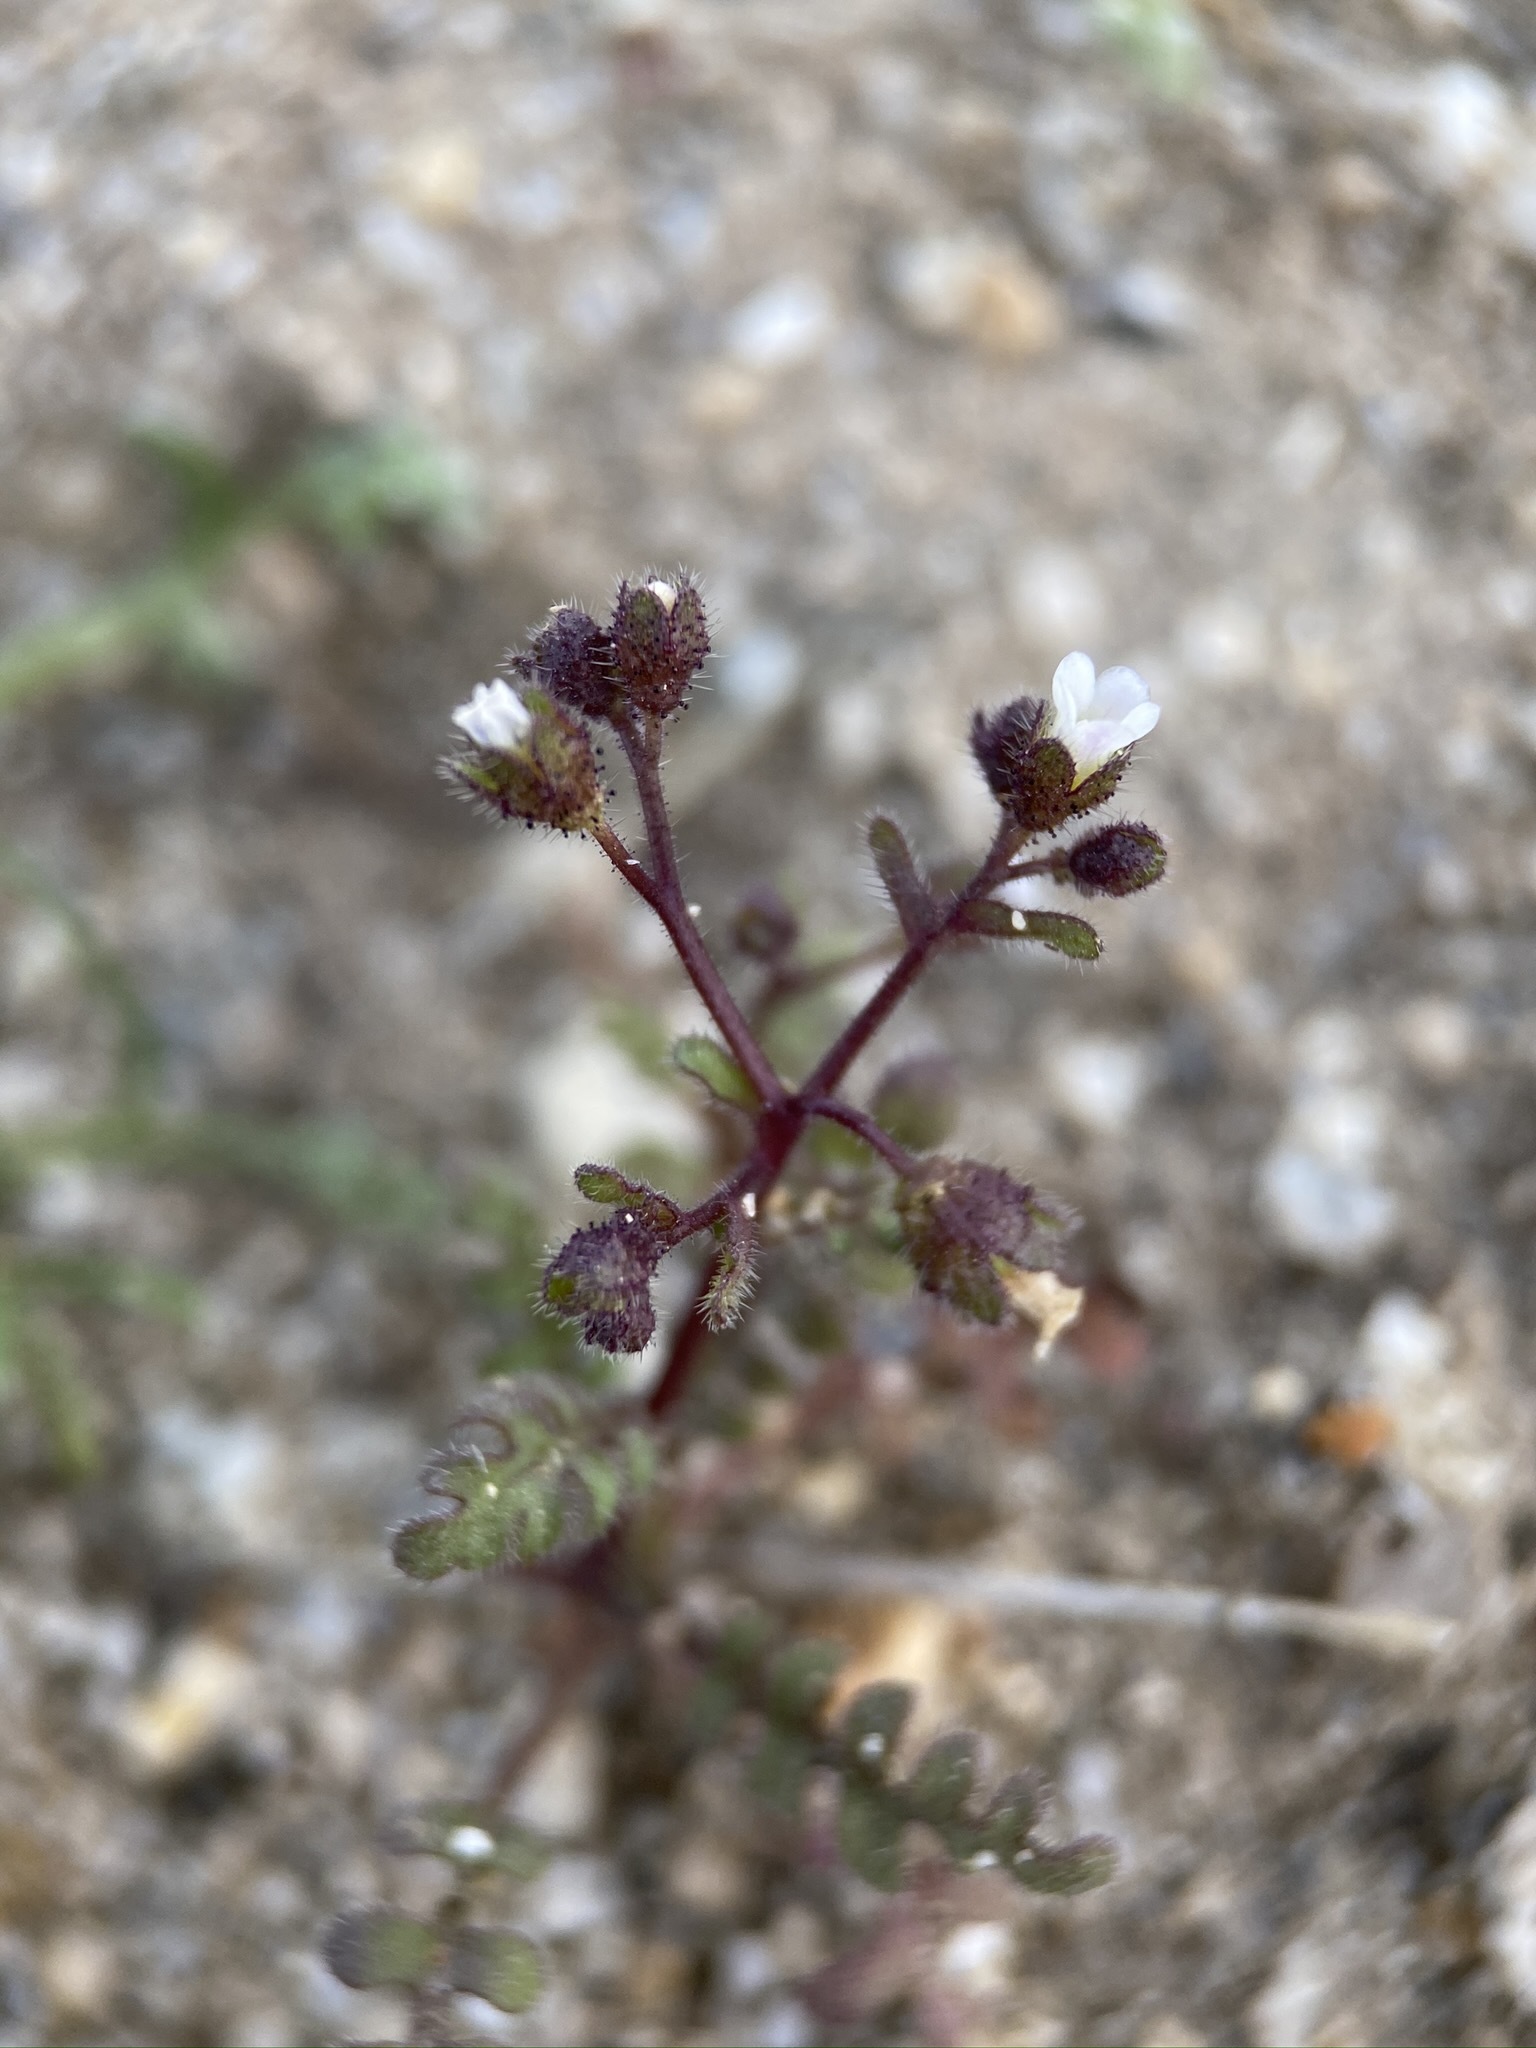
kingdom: Plantae
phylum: Tracheophyta
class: Magnoliopsida
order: Boraginales
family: Hydrophyllaceae
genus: Eucrypta
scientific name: Eucrypta micrantha
